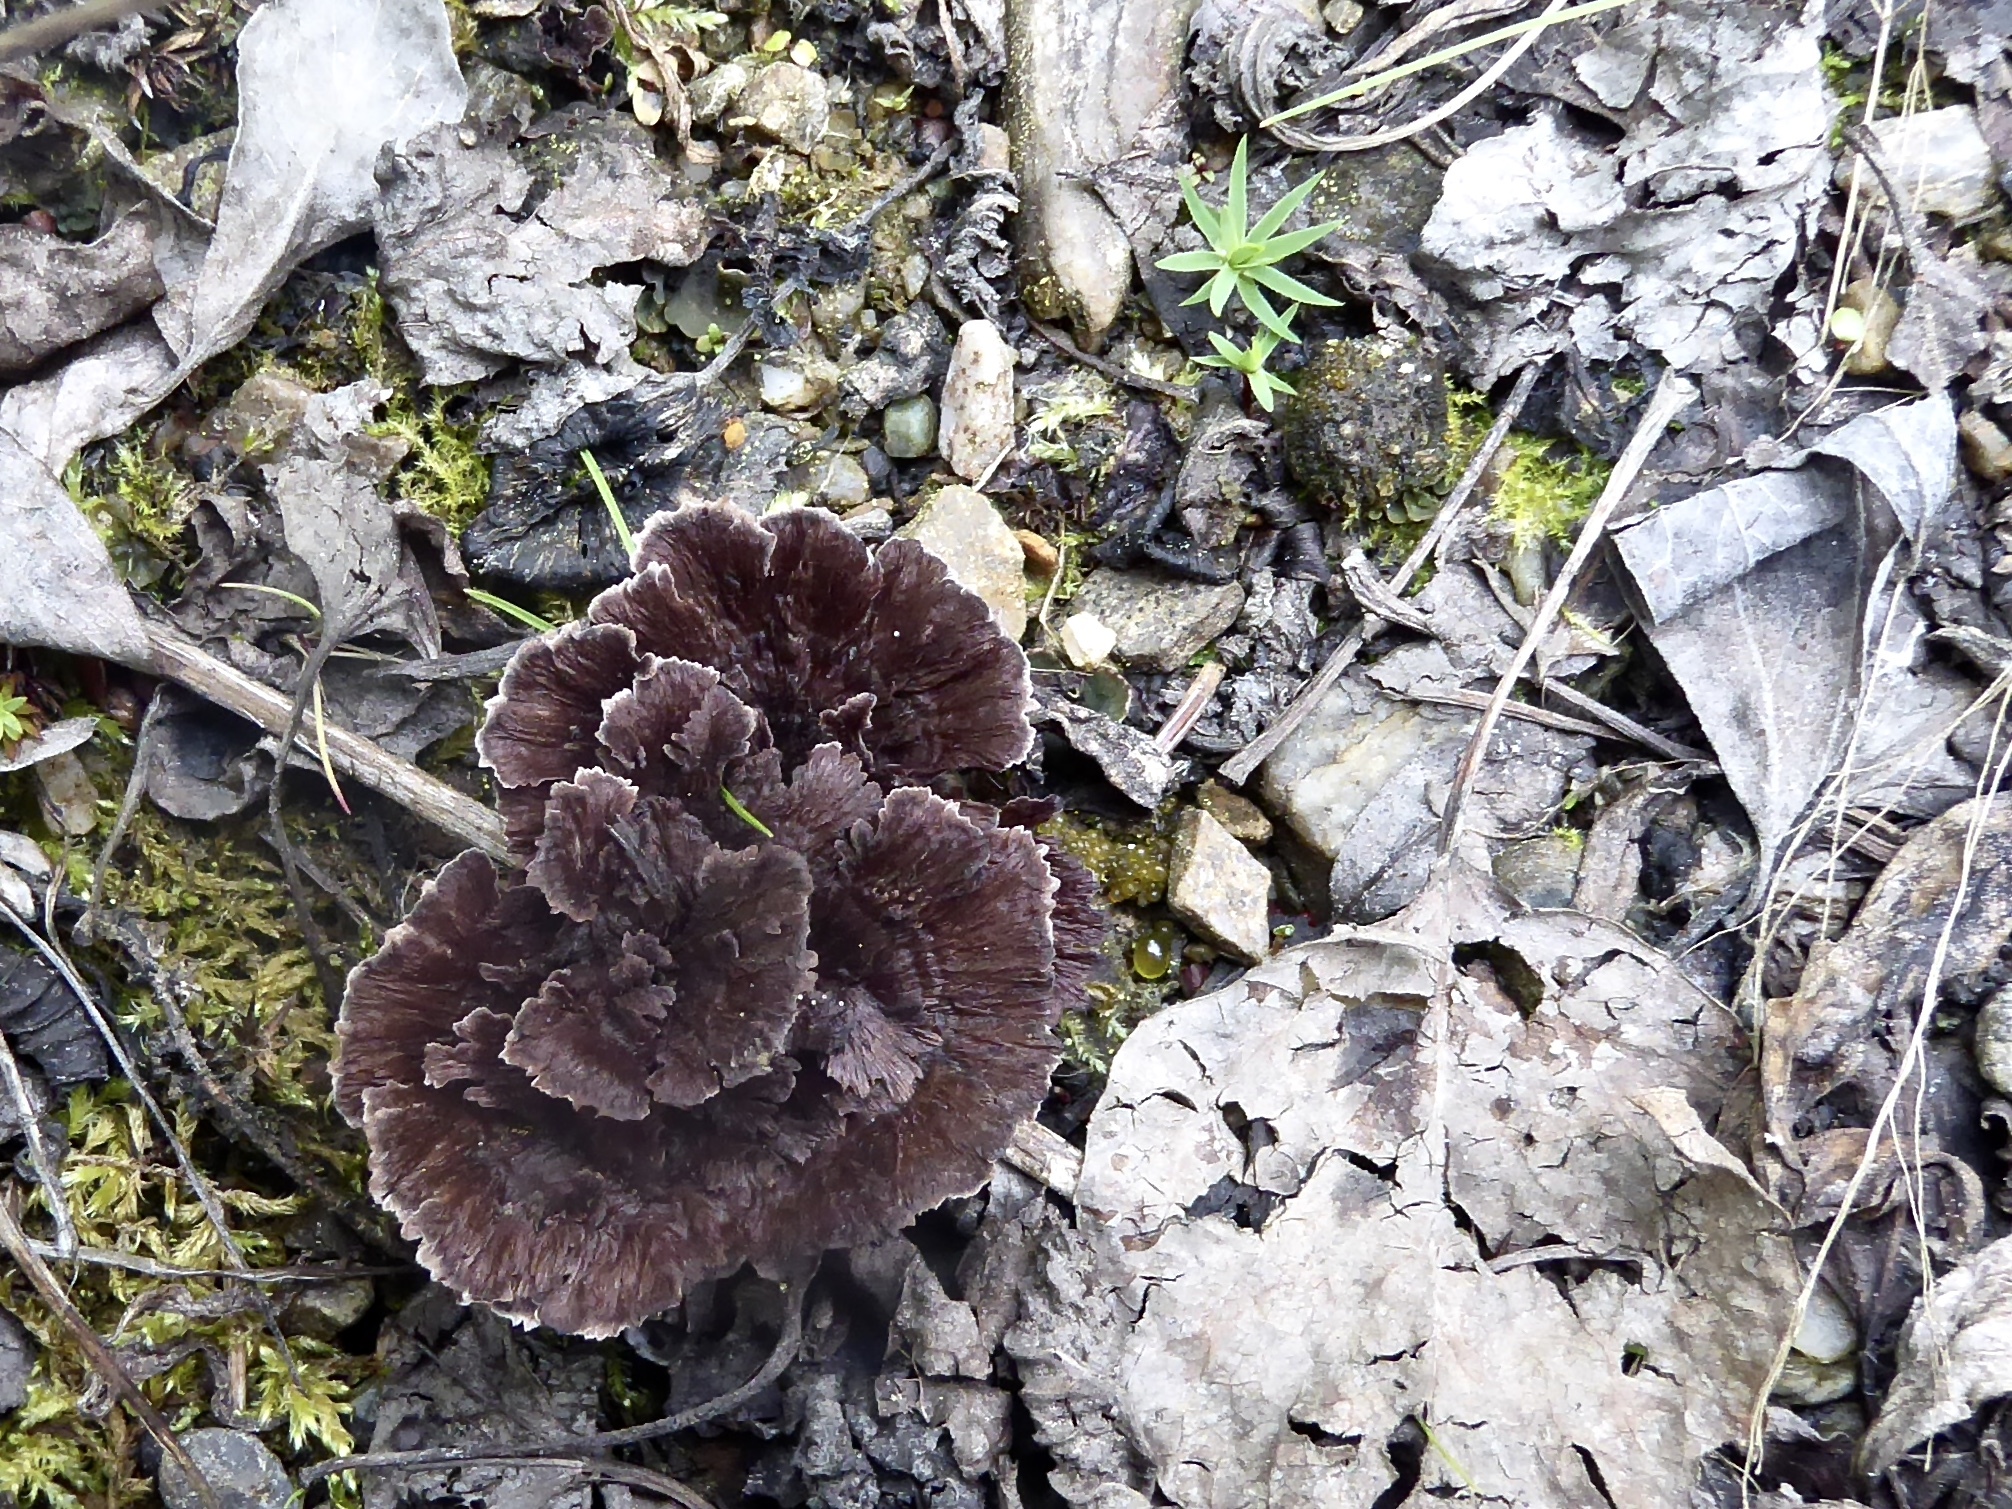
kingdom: Fungi
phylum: Basidiomycota
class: Agaricomycetes
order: Thelephorales
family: Thelephoraceae
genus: Thelephora
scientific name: Thelephora terrestris
